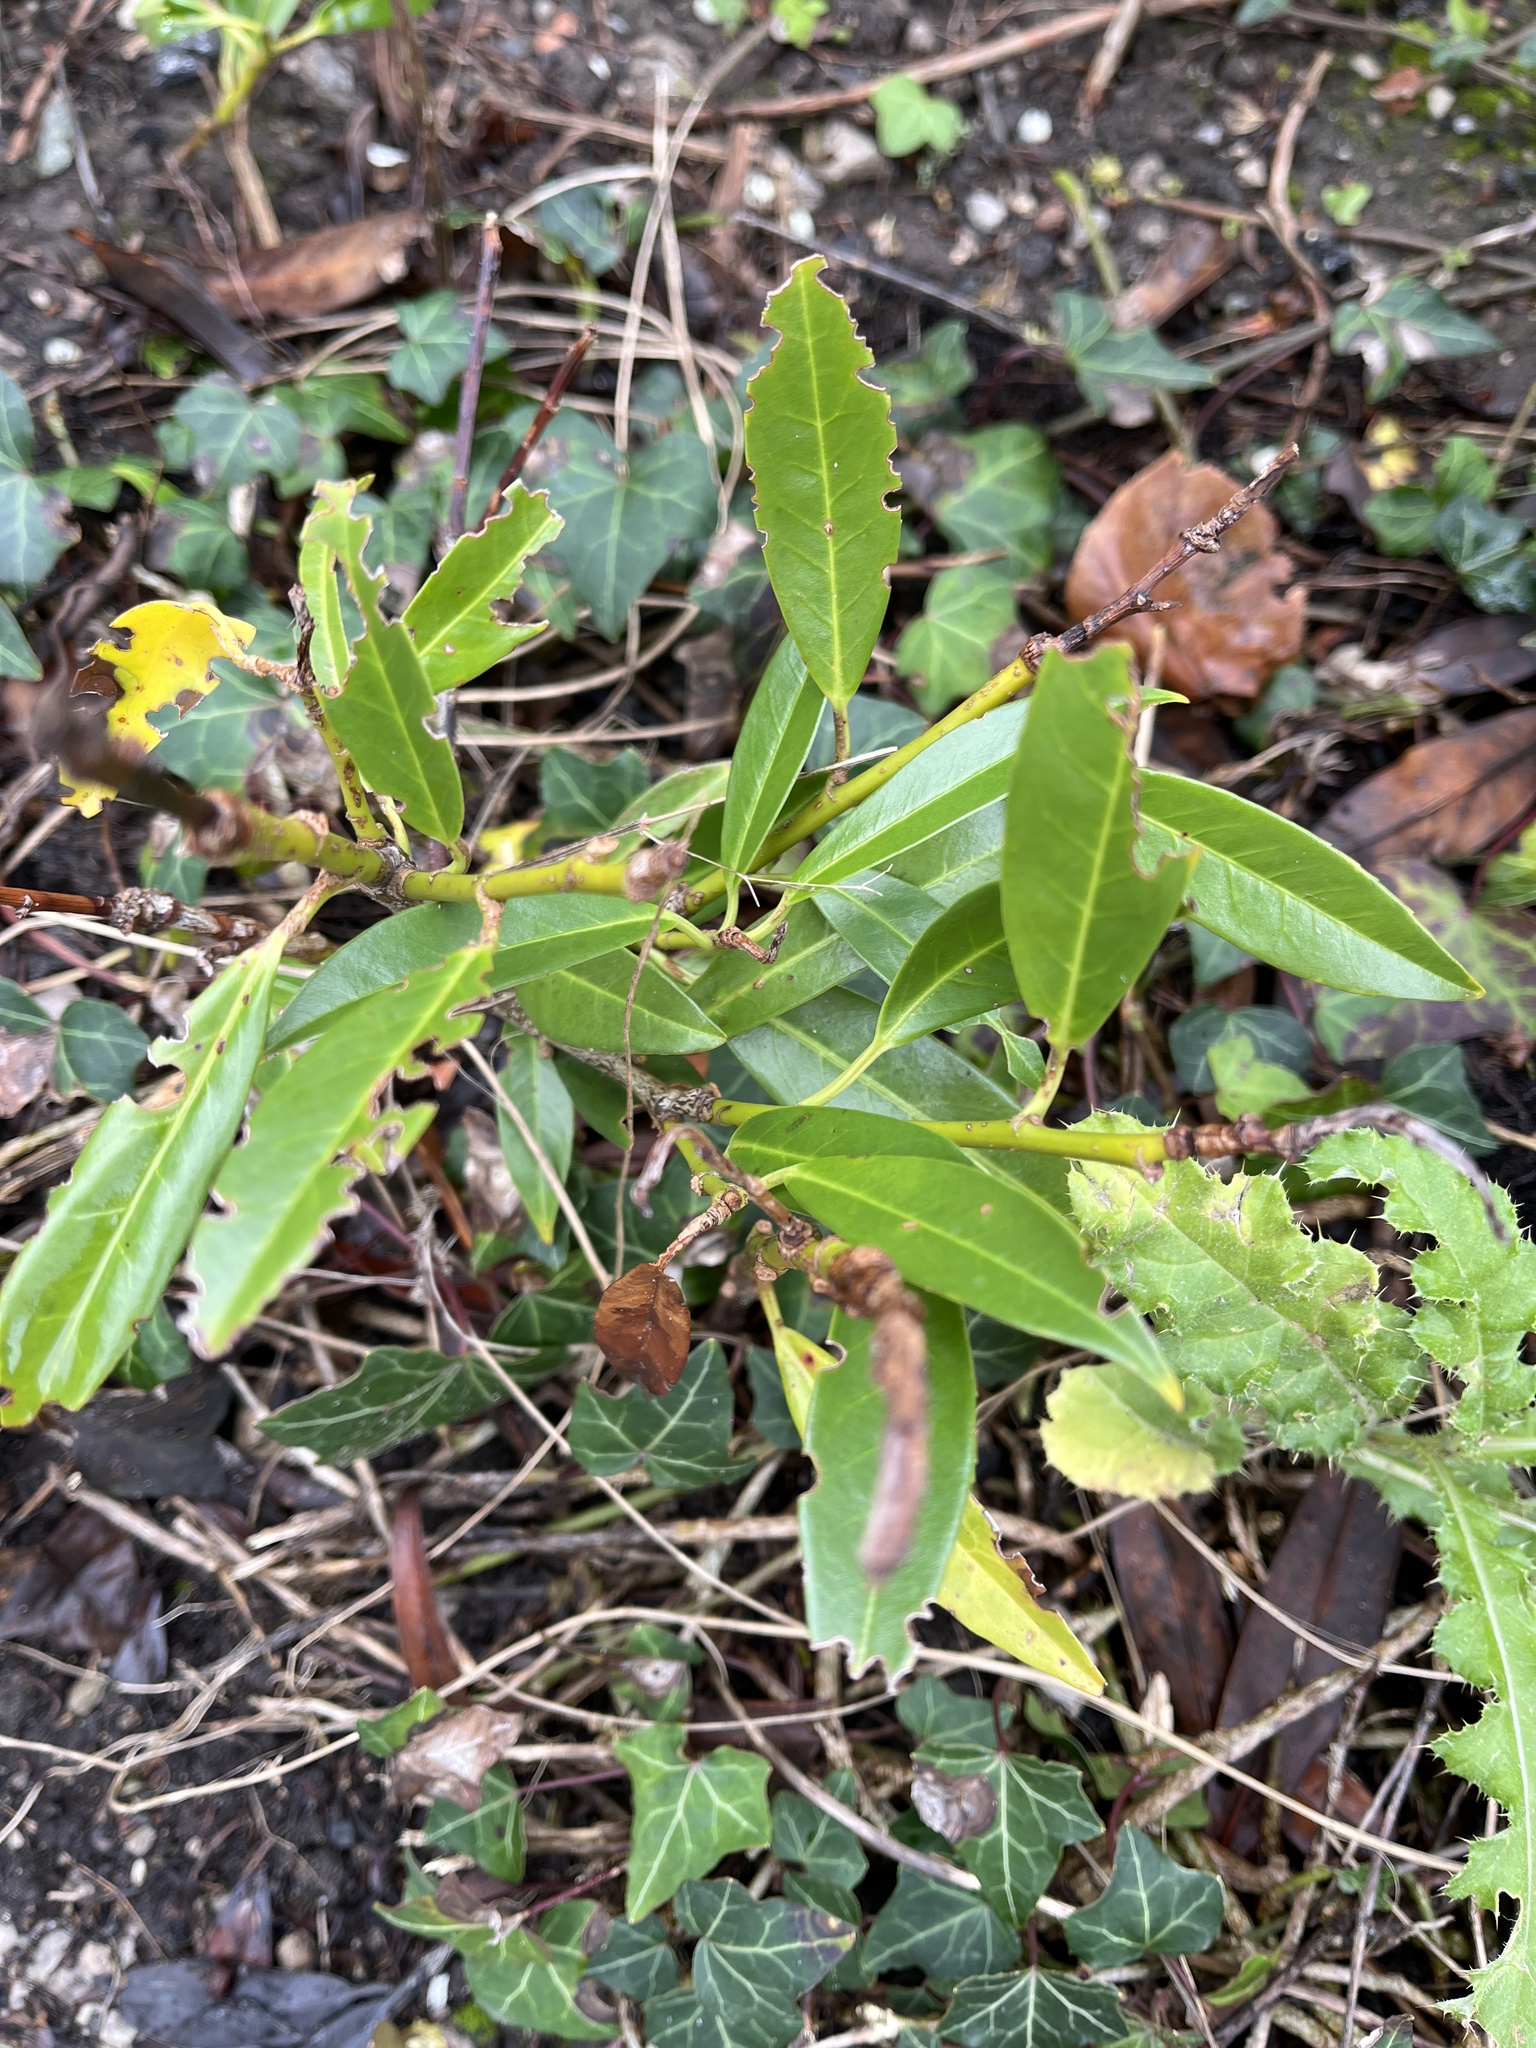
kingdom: Plantae
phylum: Tracheophyta
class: Magnoliopsida
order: Rosales
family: Rosaceae
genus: Prunus
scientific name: Prunus laurocerasus
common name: Cherry laurel
